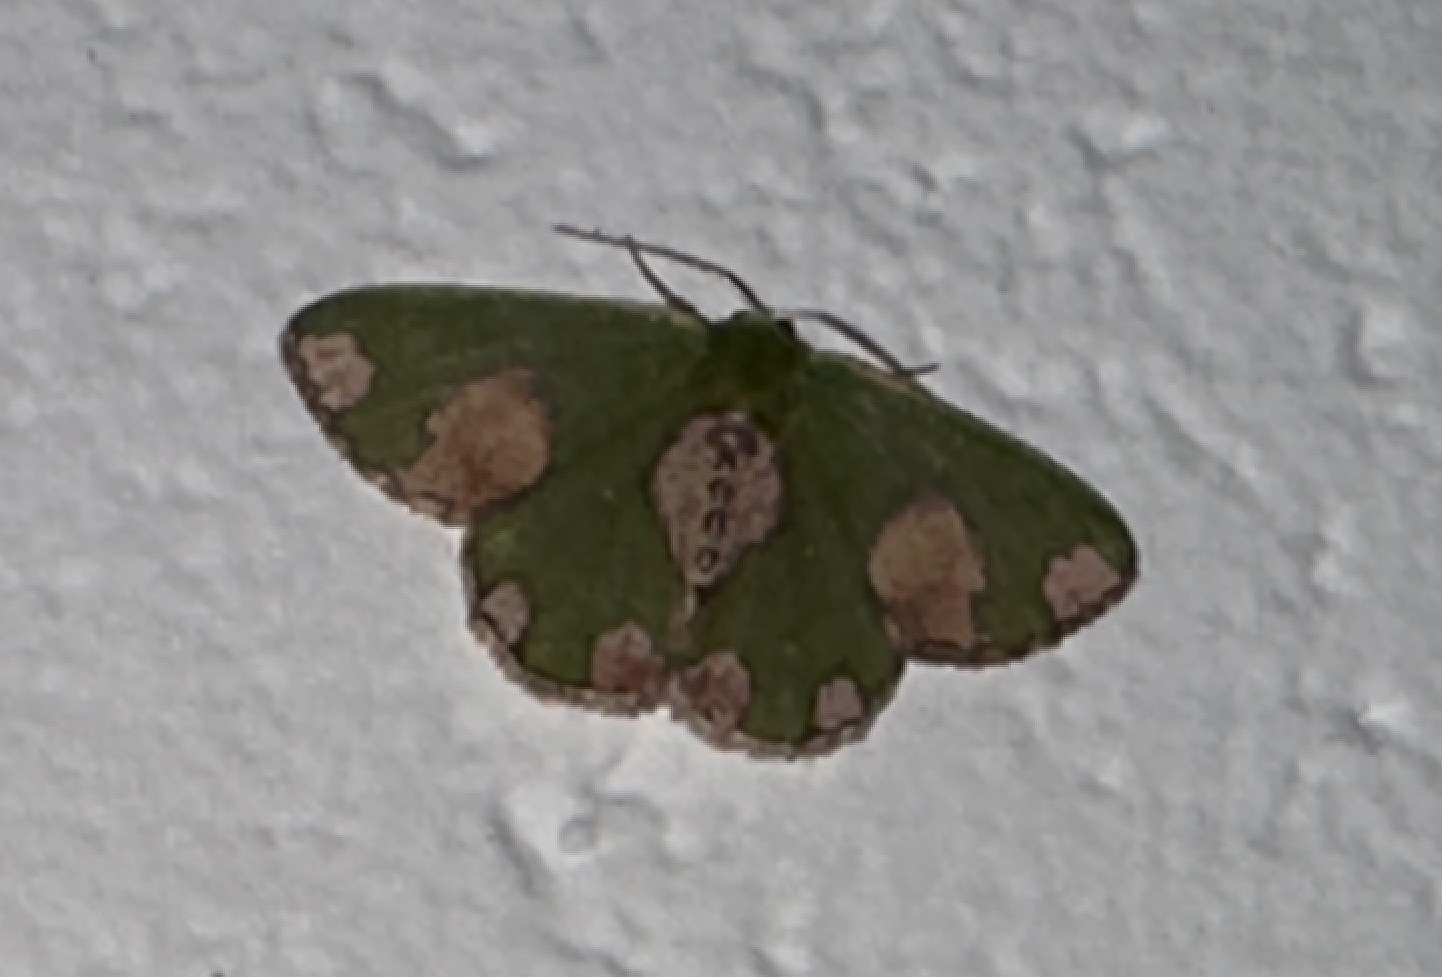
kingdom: Animalia
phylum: Arthropoda
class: Insecta
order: Lepidoptera
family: Geometridae
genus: Cheroscelis
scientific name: Cheroscelis oospila
